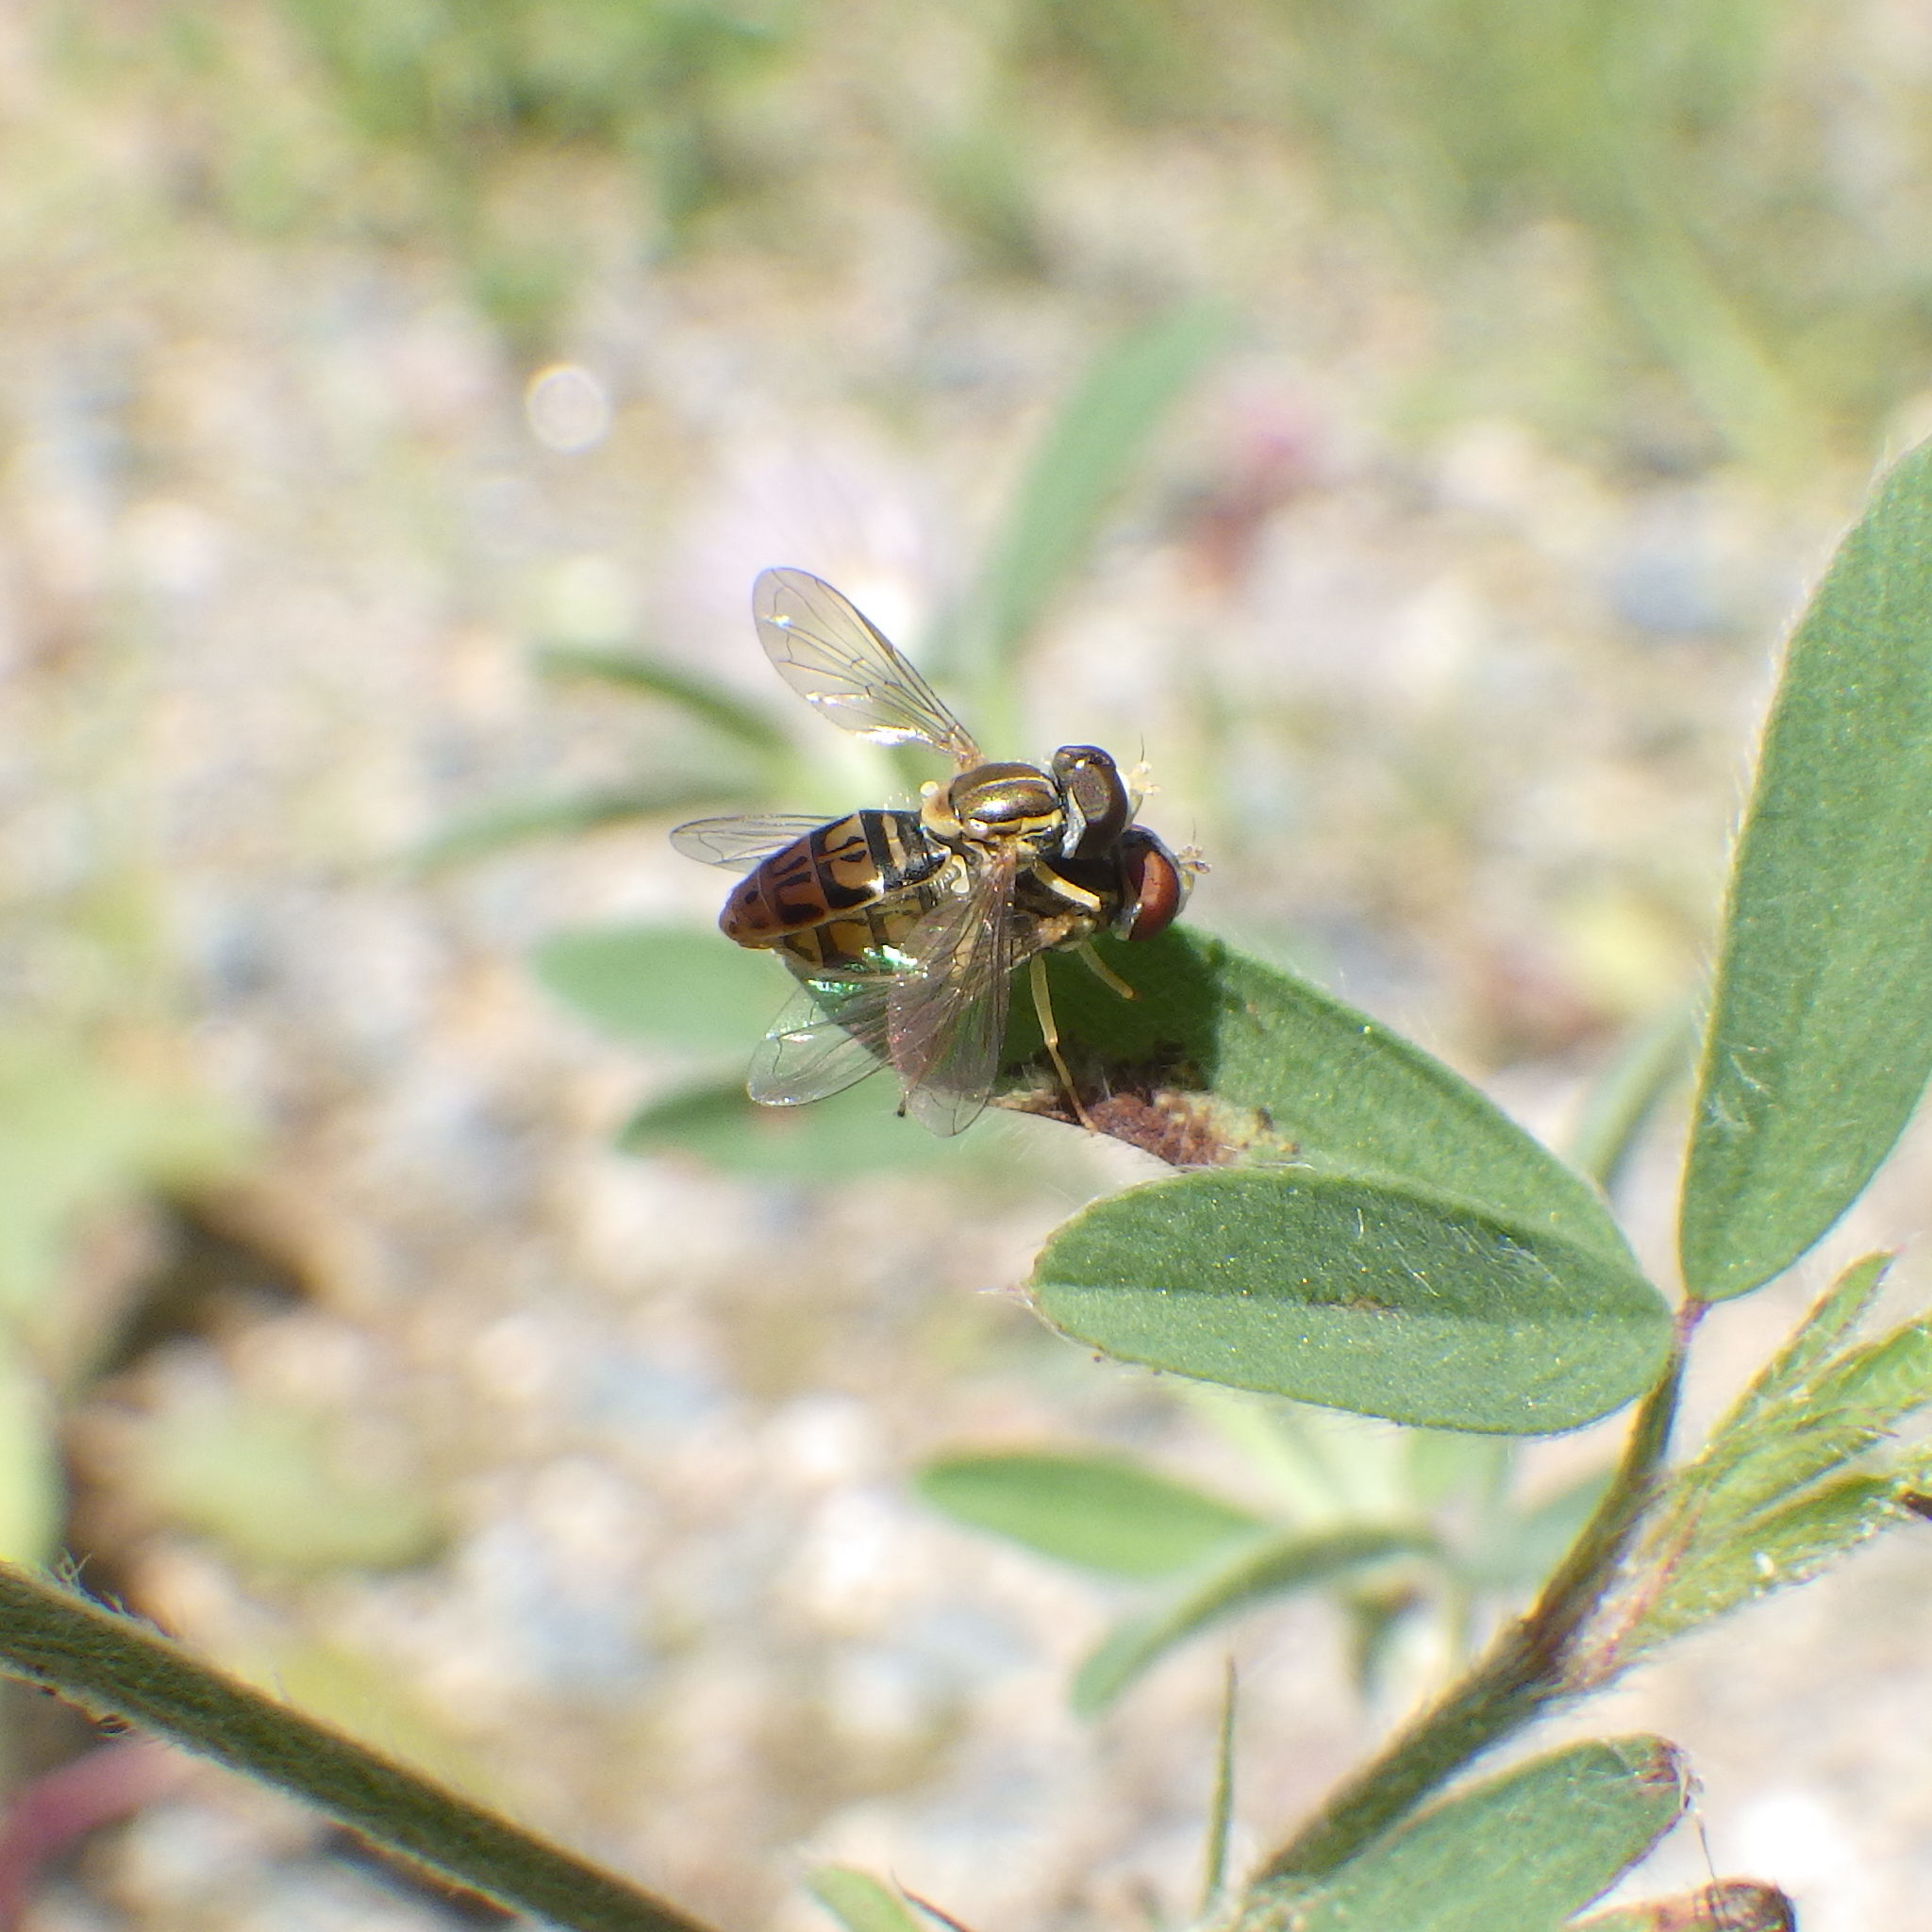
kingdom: Animalia
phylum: Arthropoda
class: Insecta
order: Diptera
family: Syrphidae
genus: Toxomerus
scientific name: Toxomerus marginatus
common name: Syrphid fly
